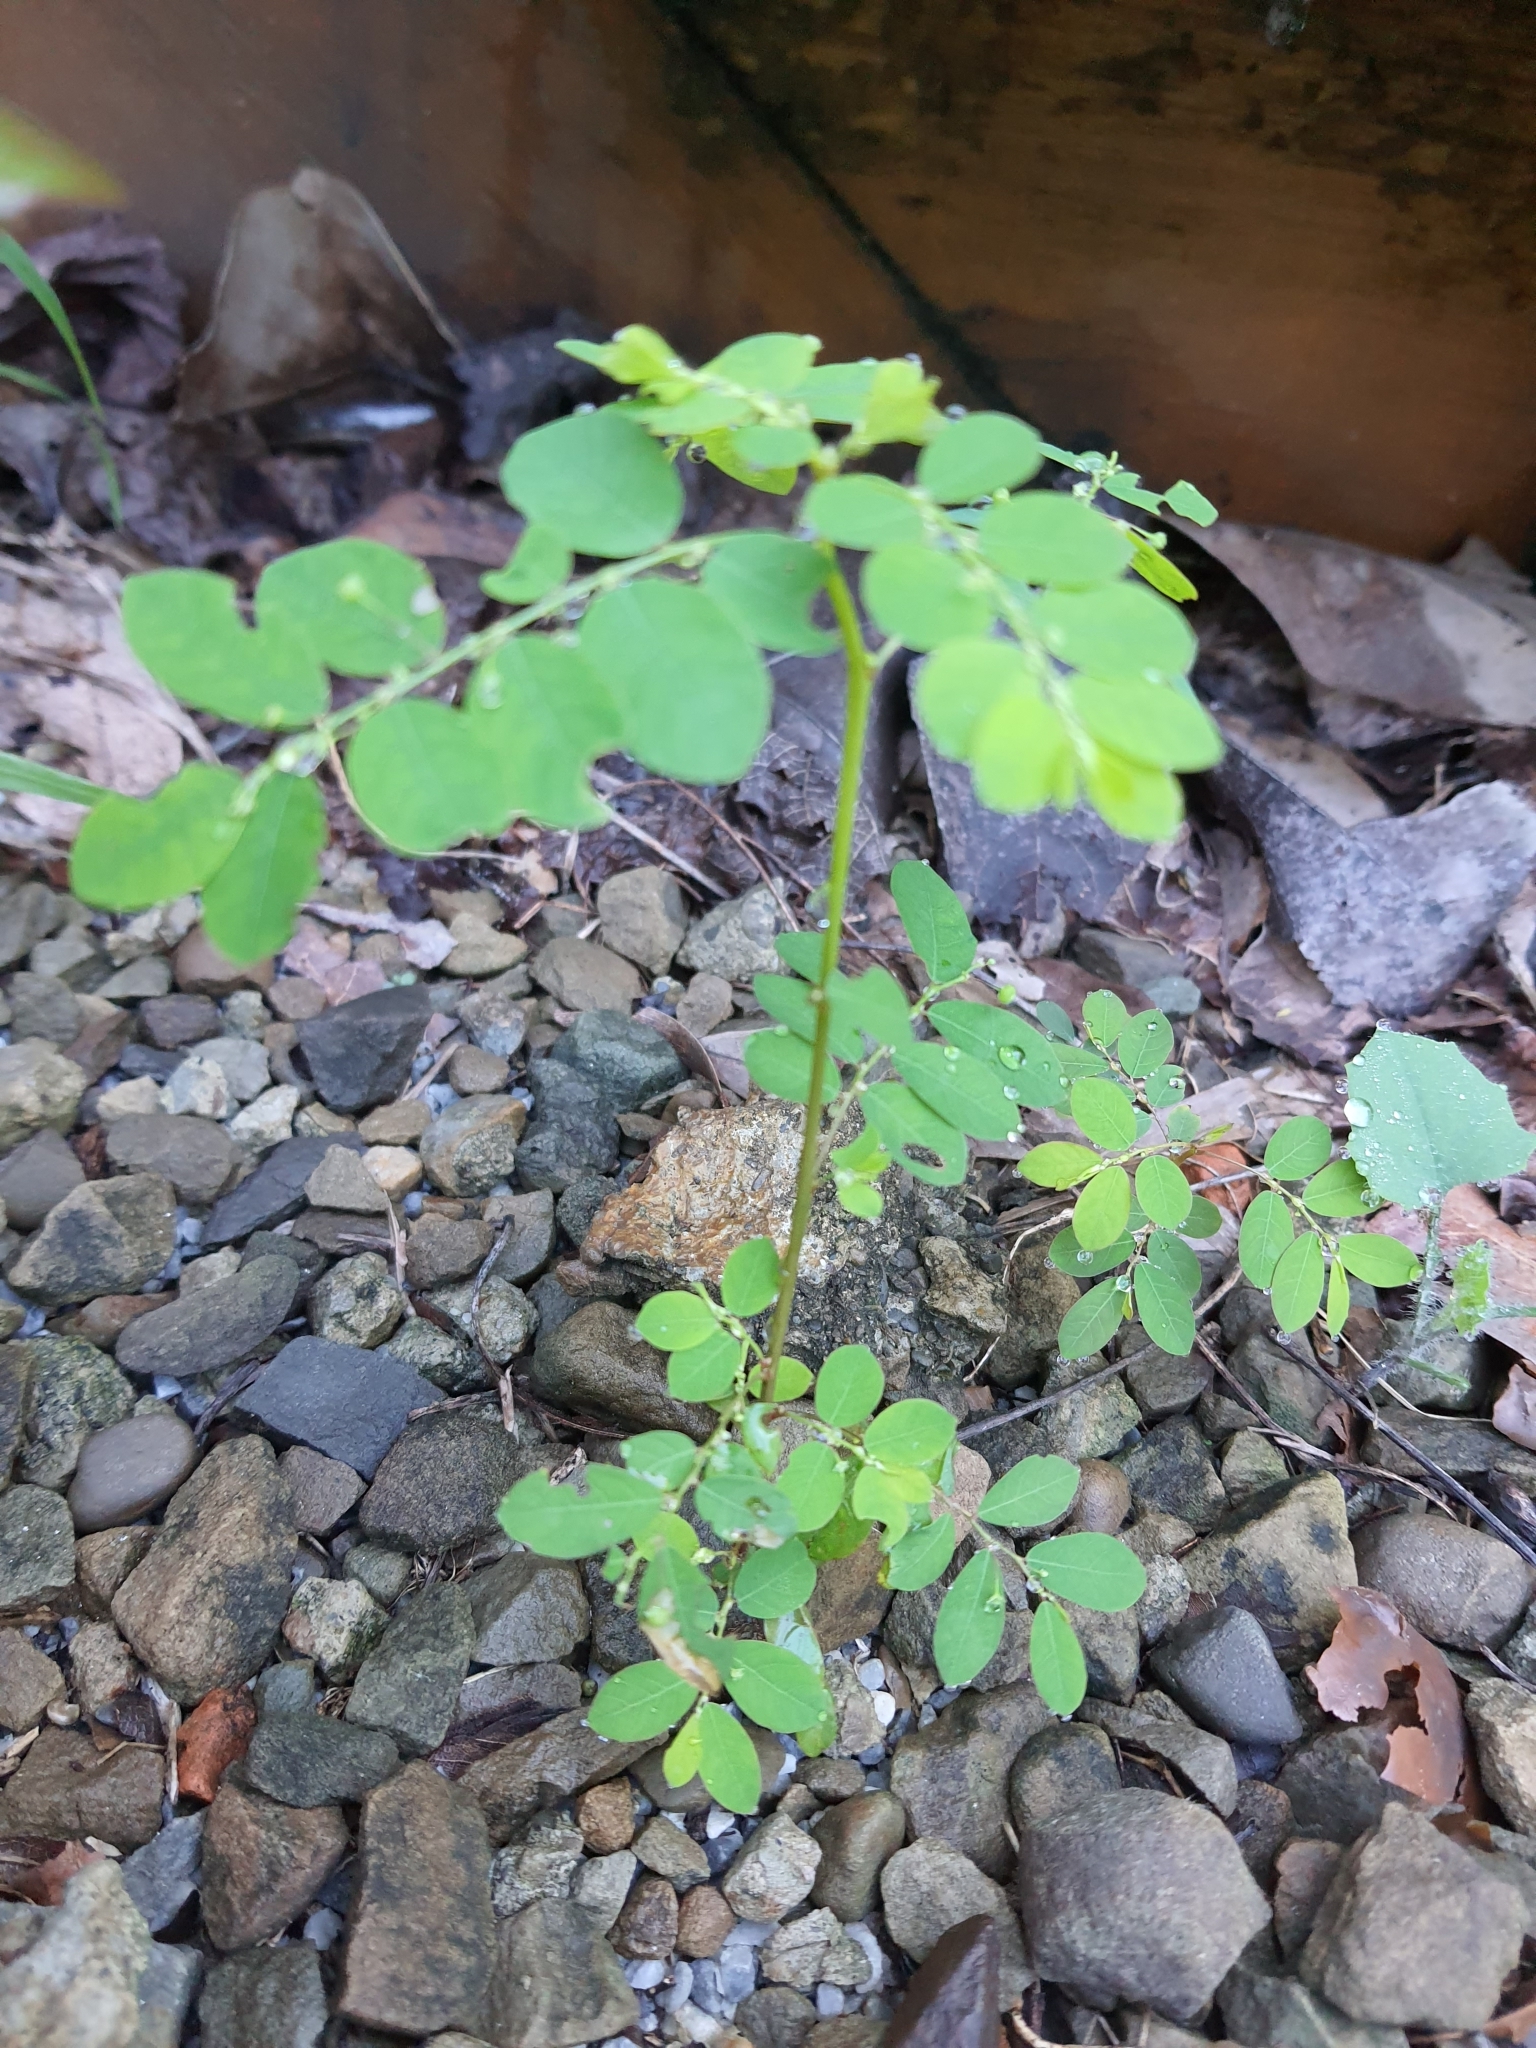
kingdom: Plantae
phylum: Tracheophyta
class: Magnoliopsida
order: Malpighiales
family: Phyllanthaceae
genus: Phyllanthus
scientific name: Phyllanthus tenellus
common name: Mascarene island leaf-flower
